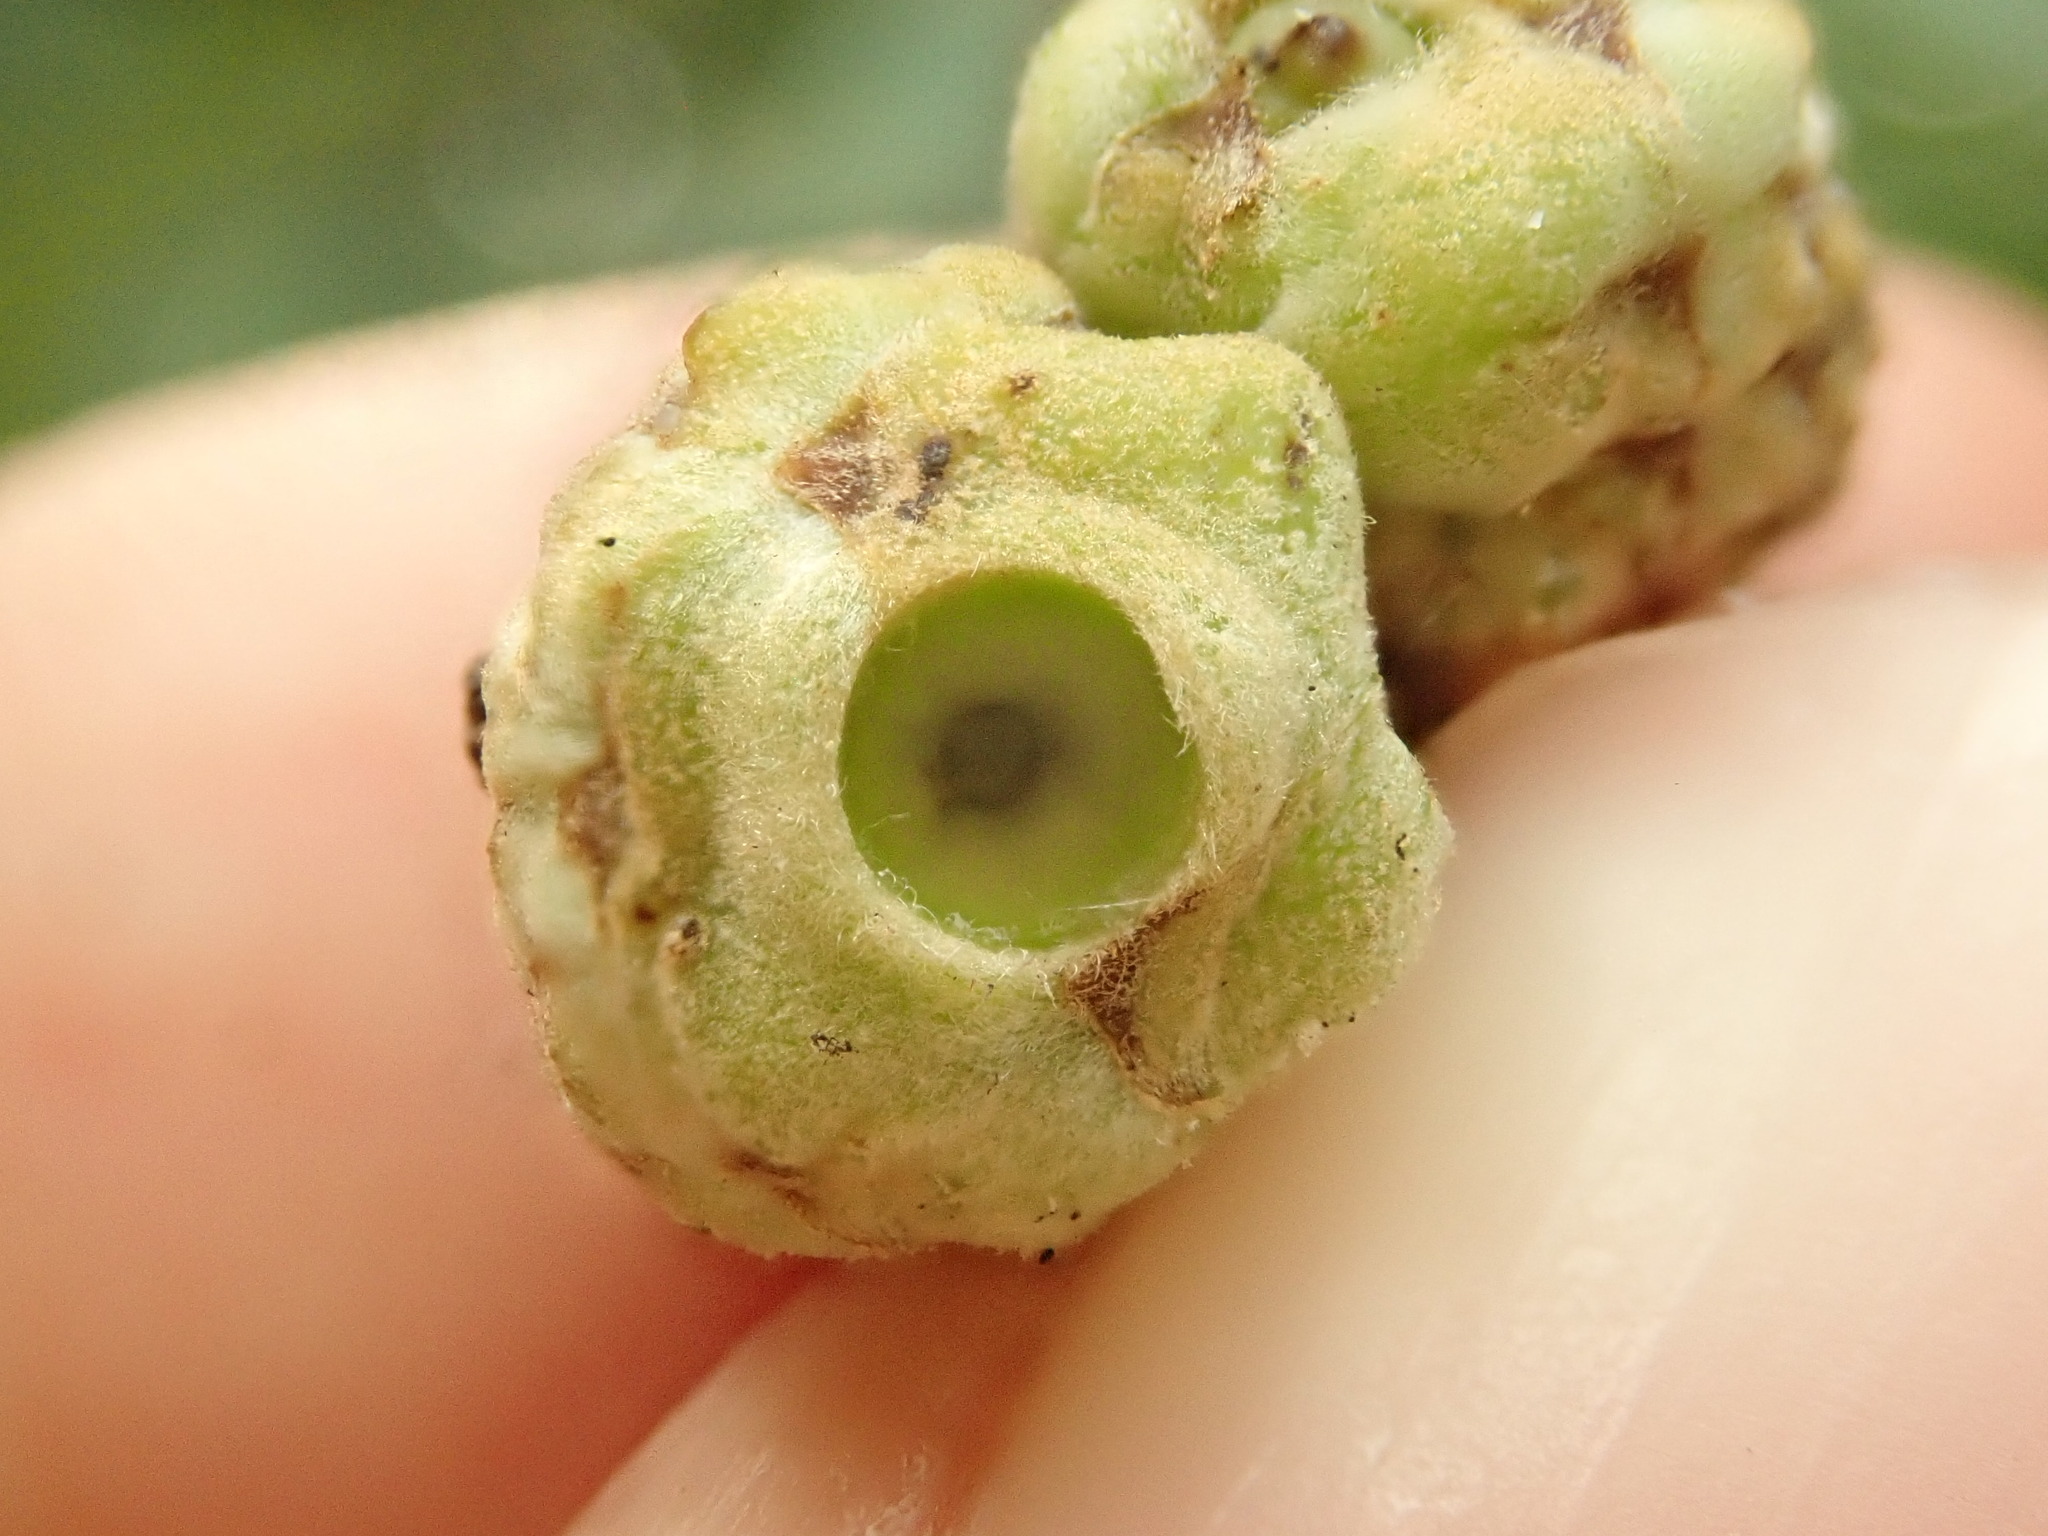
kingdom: Animalia
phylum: Arthropoda
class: Insecta
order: Hymenoptera
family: Cynipidae
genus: Callirhytis
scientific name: Callirhytis glandium
